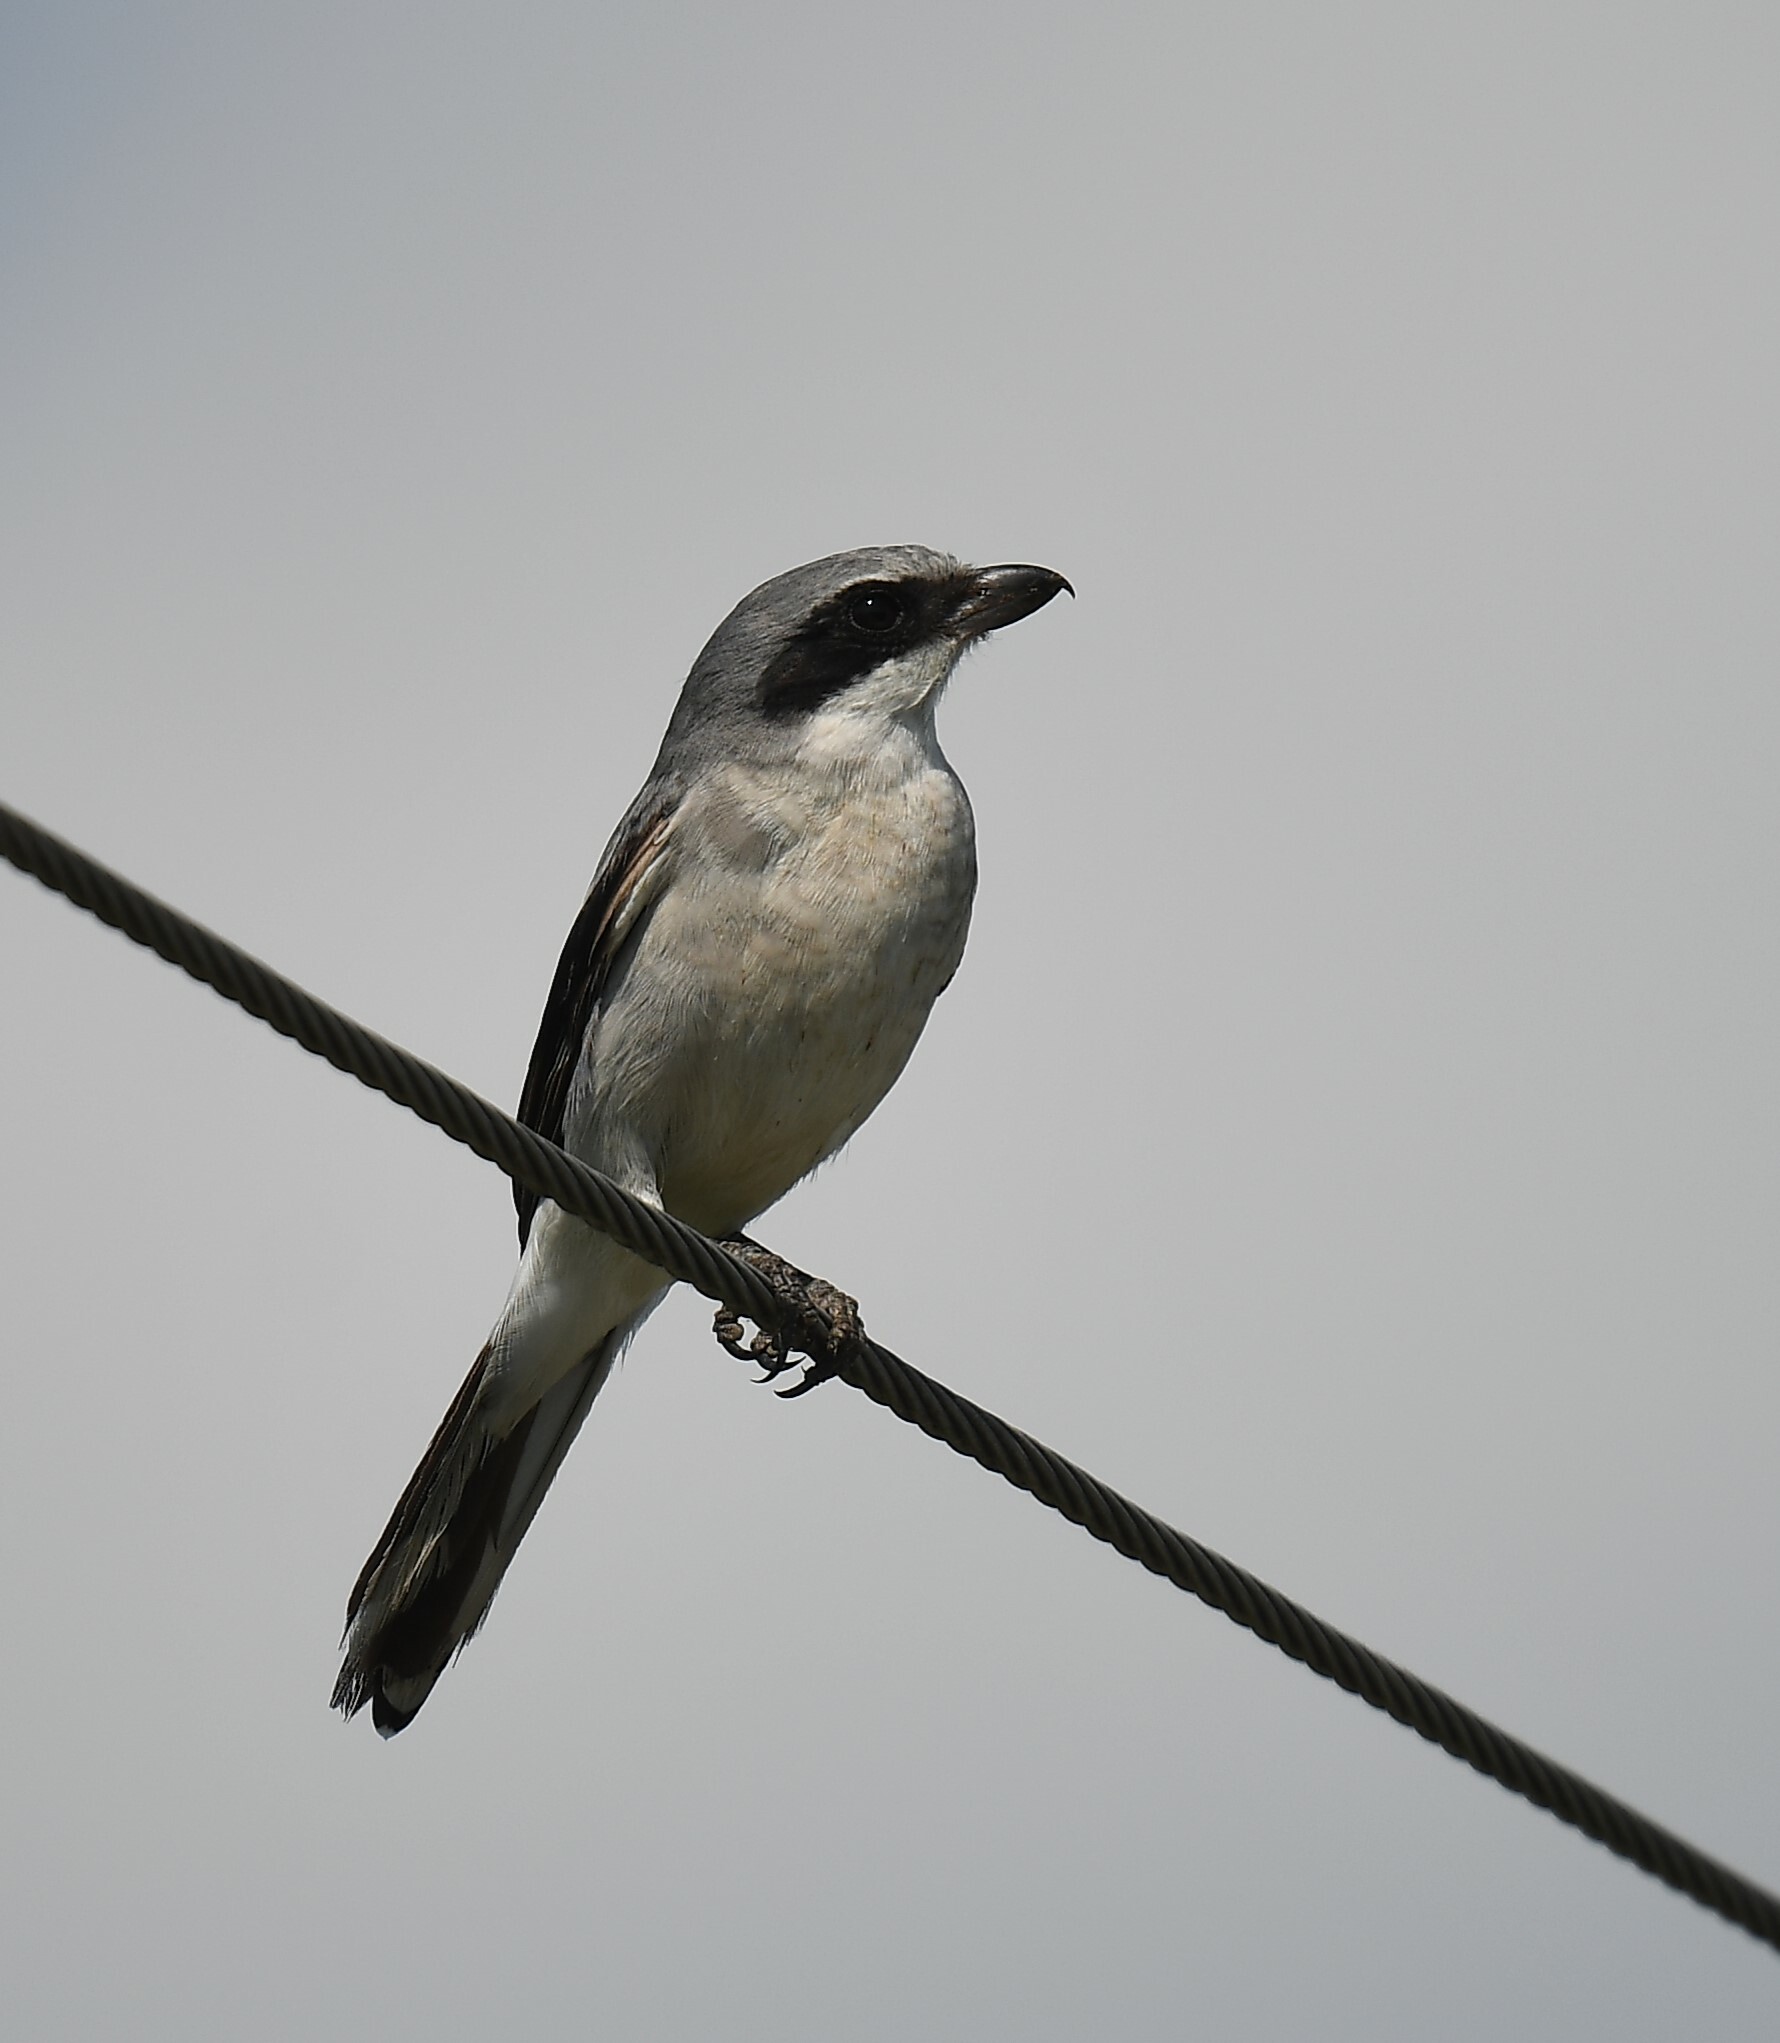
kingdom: Animalia
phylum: Chordata
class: Aves
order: Passeriformes
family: Laniidae
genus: Lanius
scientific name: Lanius ludovicianus
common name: Loggerhead shrike
